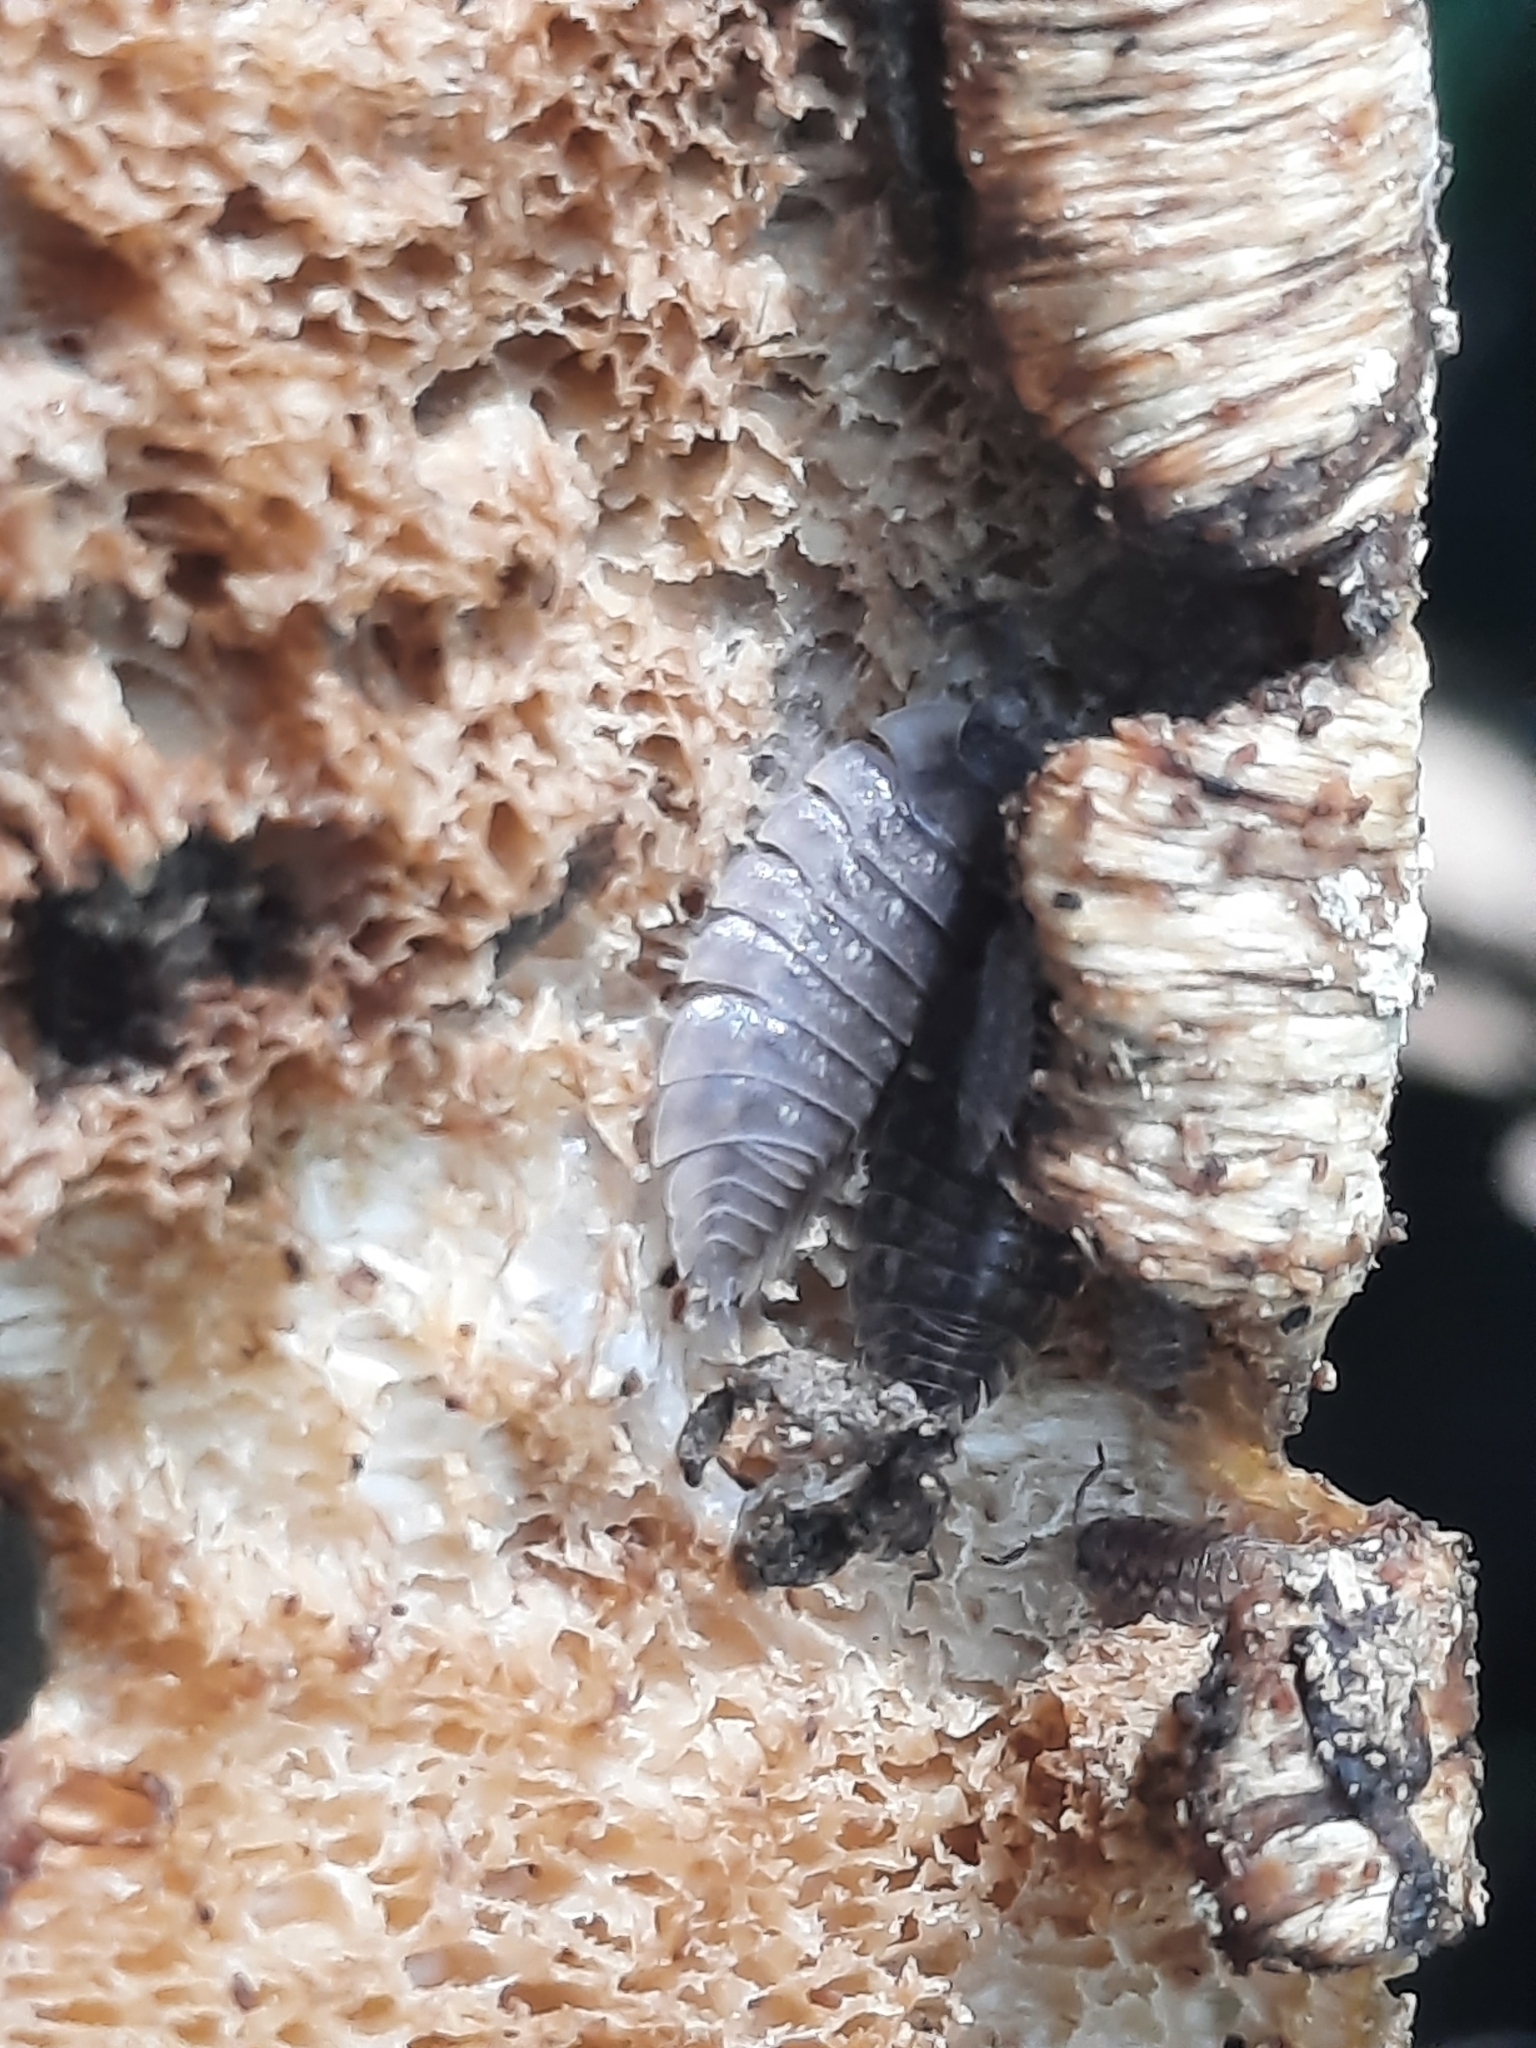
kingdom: Animalia
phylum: Arthropoda
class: Malacostraca
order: Isopoda
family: Oniscidae
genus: Oniscus
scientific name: Oniscus asellus
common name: Common shiny woodlouse
